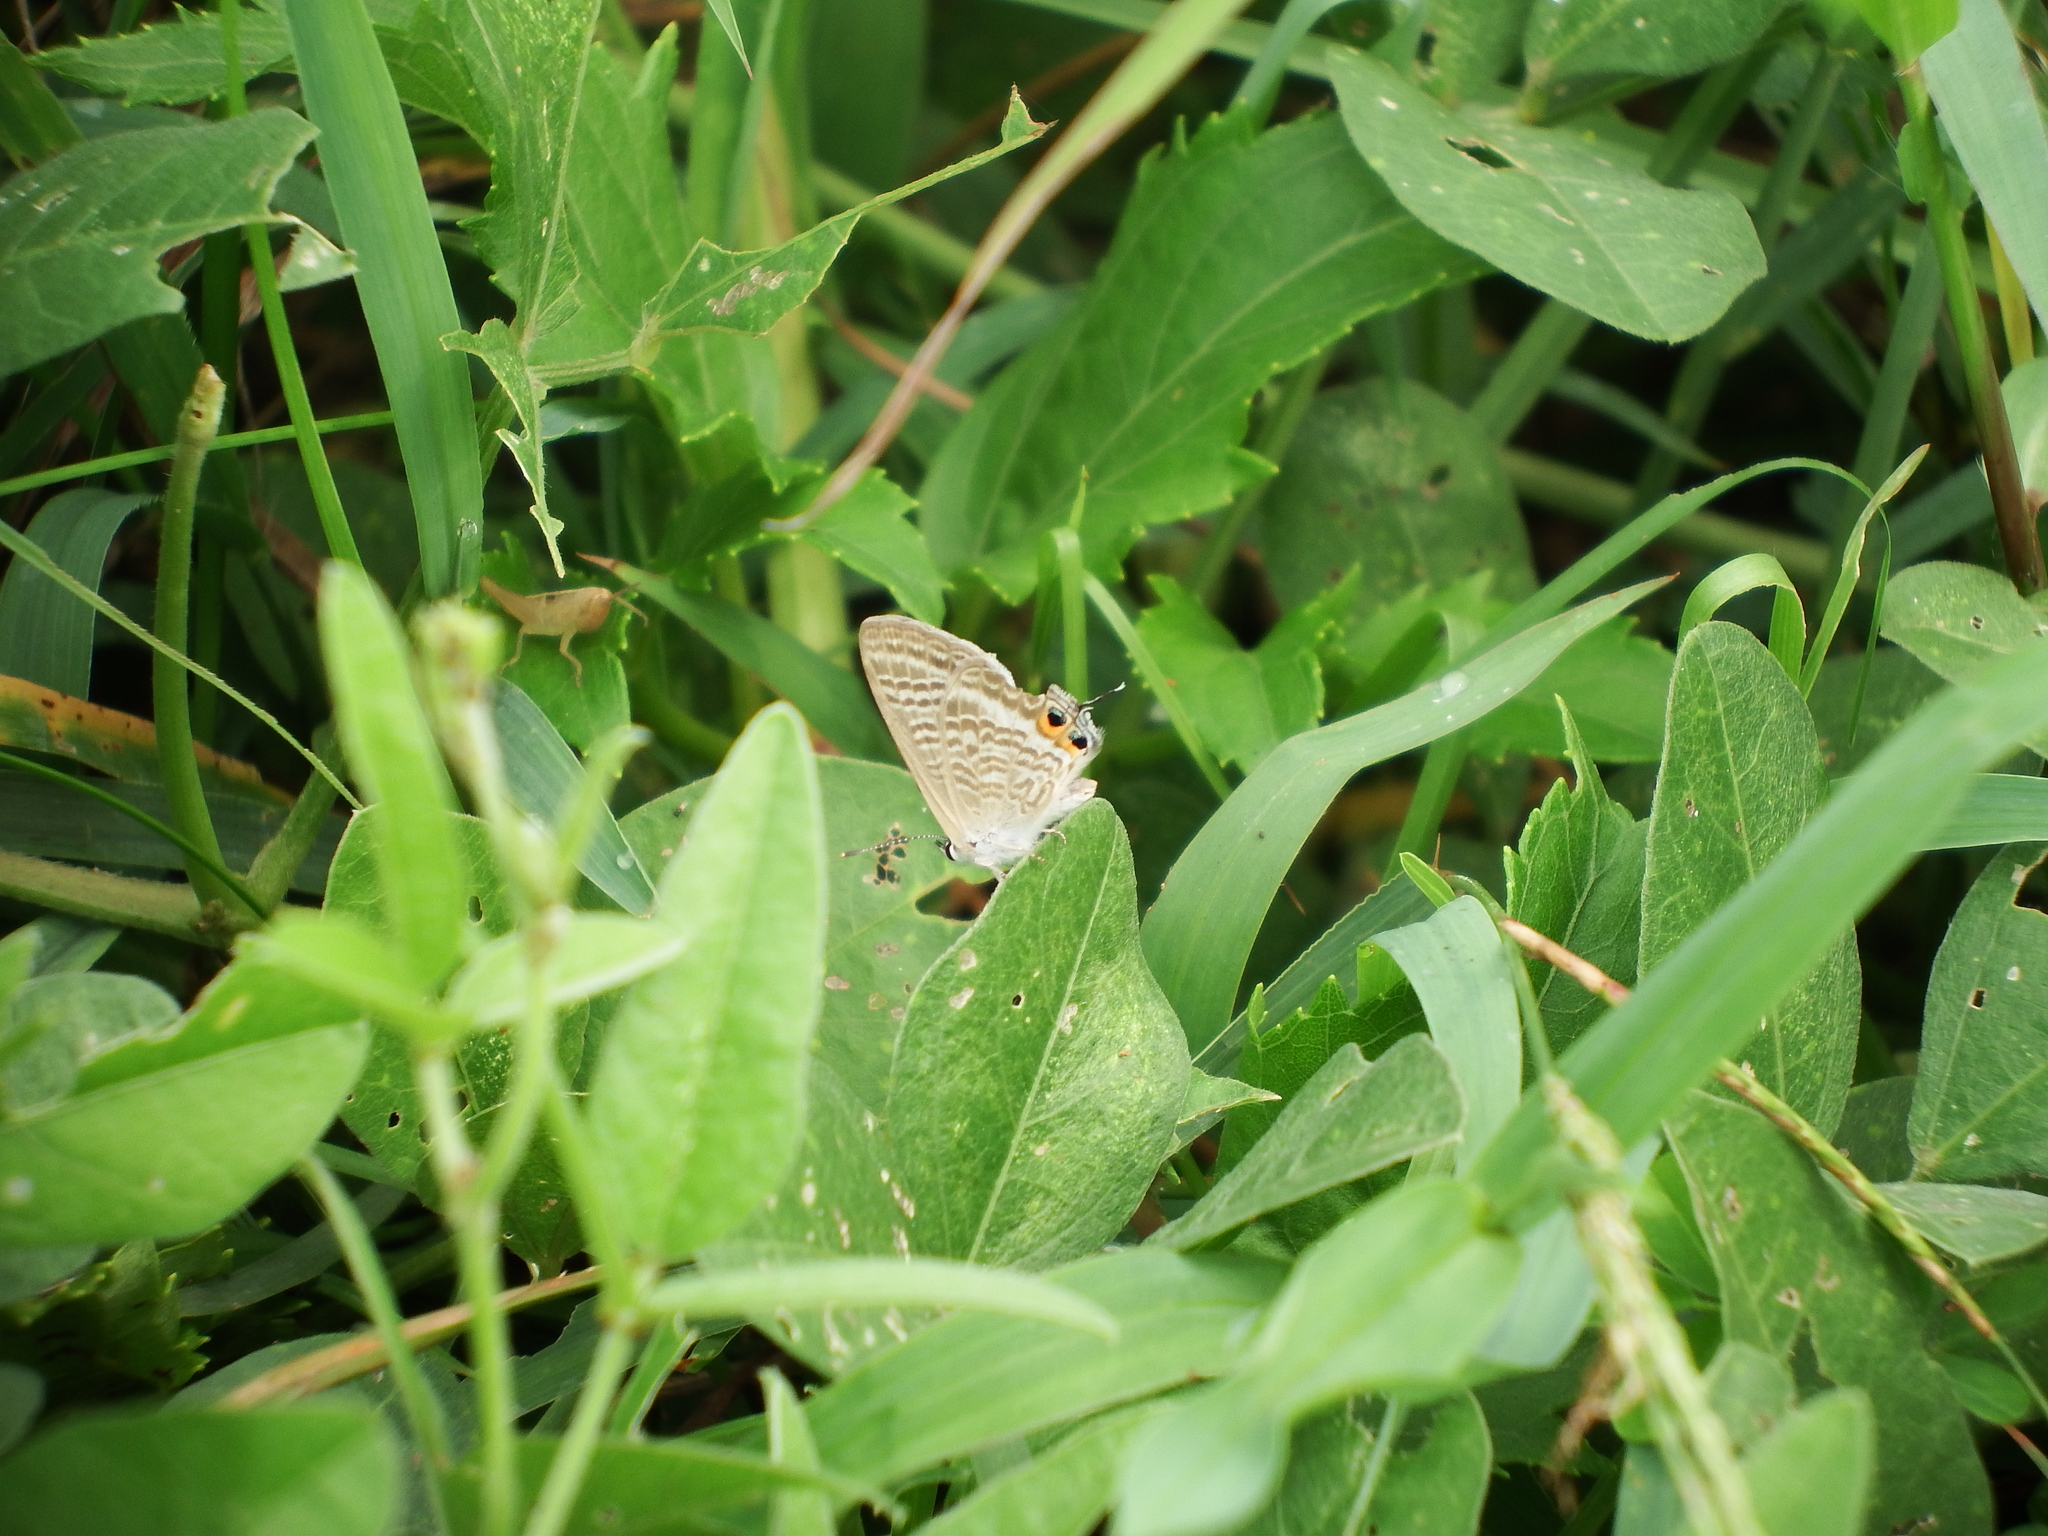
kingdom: Animalia
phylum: Arthropoda
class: Insecta
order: Lepidoptera
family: Lycaenidae
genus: Lampides
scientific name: Lampides boeticus
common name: Long-tailed blue
